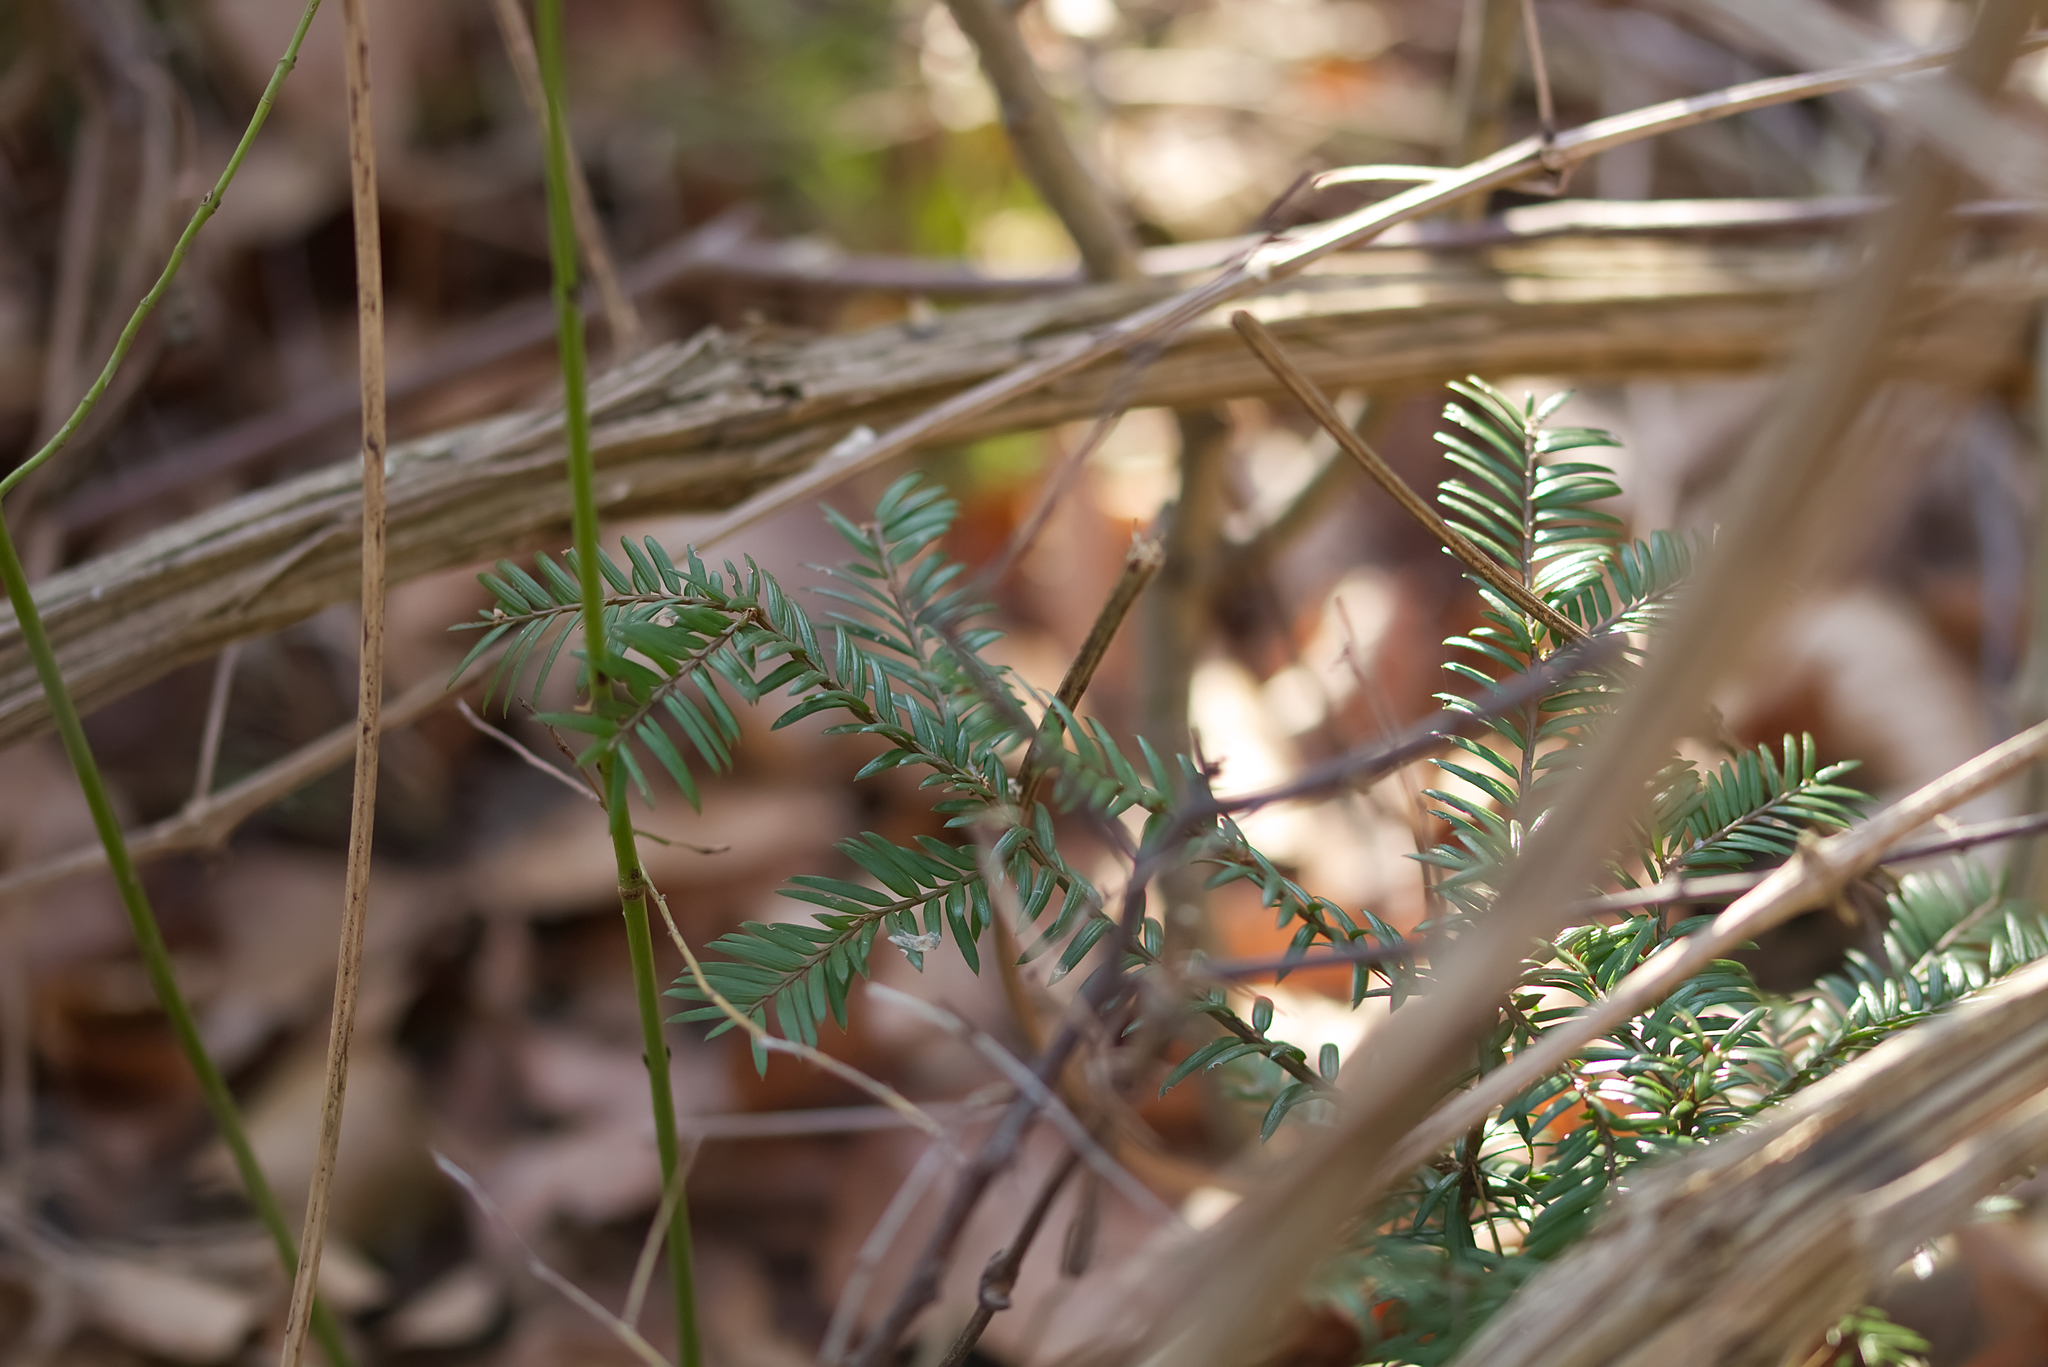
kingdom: Plantae
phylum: Tracheophyta
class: Pinopsida
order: Pinales
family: Taxaceae
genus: Taxus
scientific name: Taxus baccata
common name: Yew
